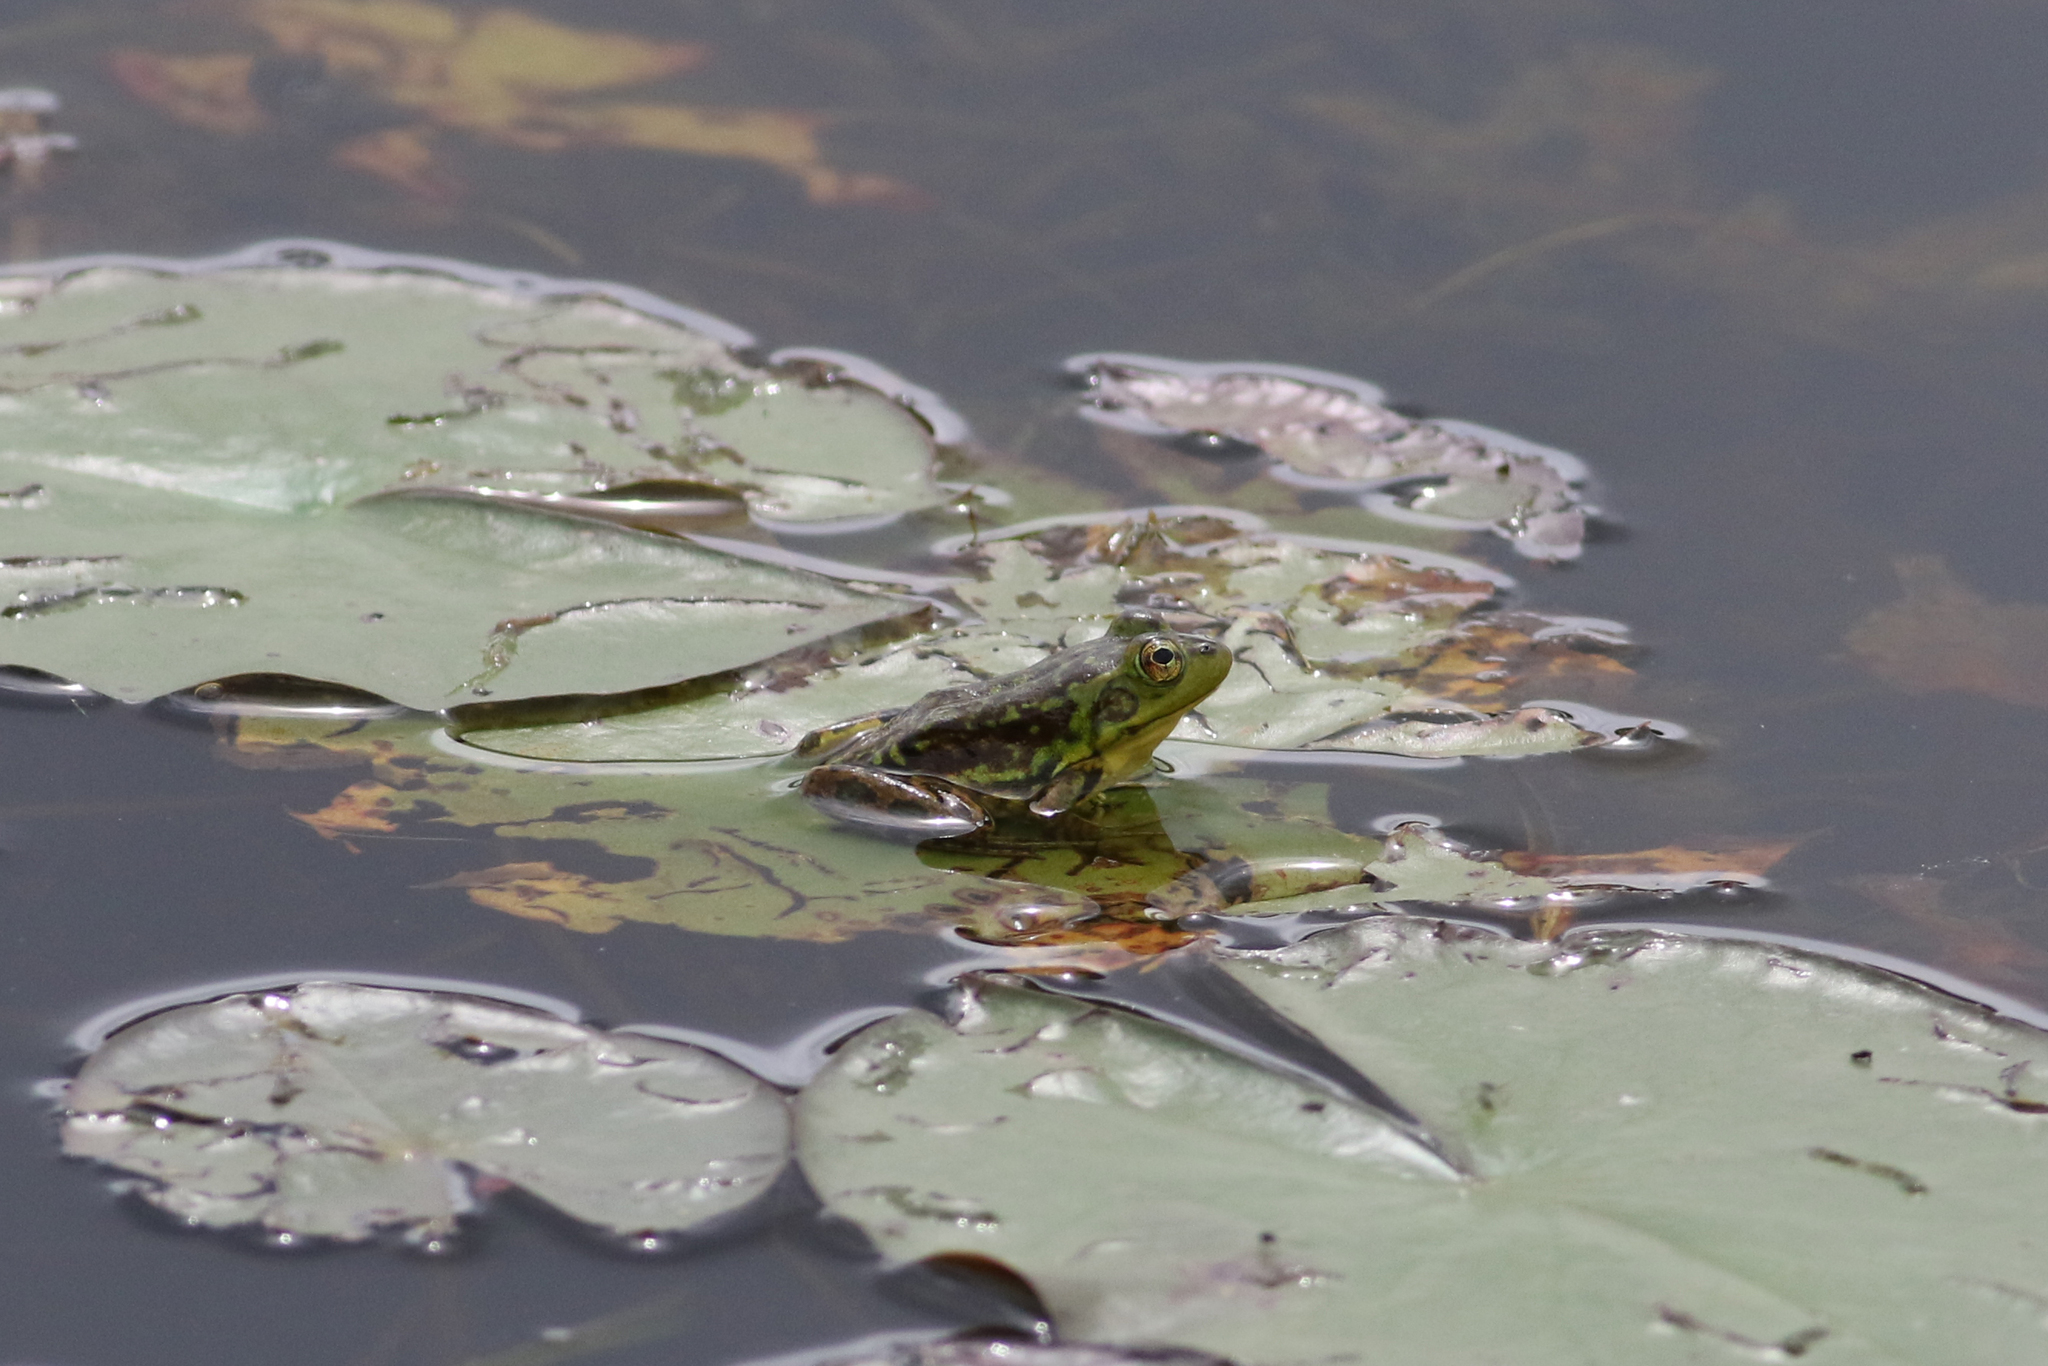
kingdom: Animalia
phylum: Chordata
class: Amphibia
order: Anura
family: Ranidae
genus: Lithobates
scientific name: Lithobates septentrionalis
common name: Mink frog
